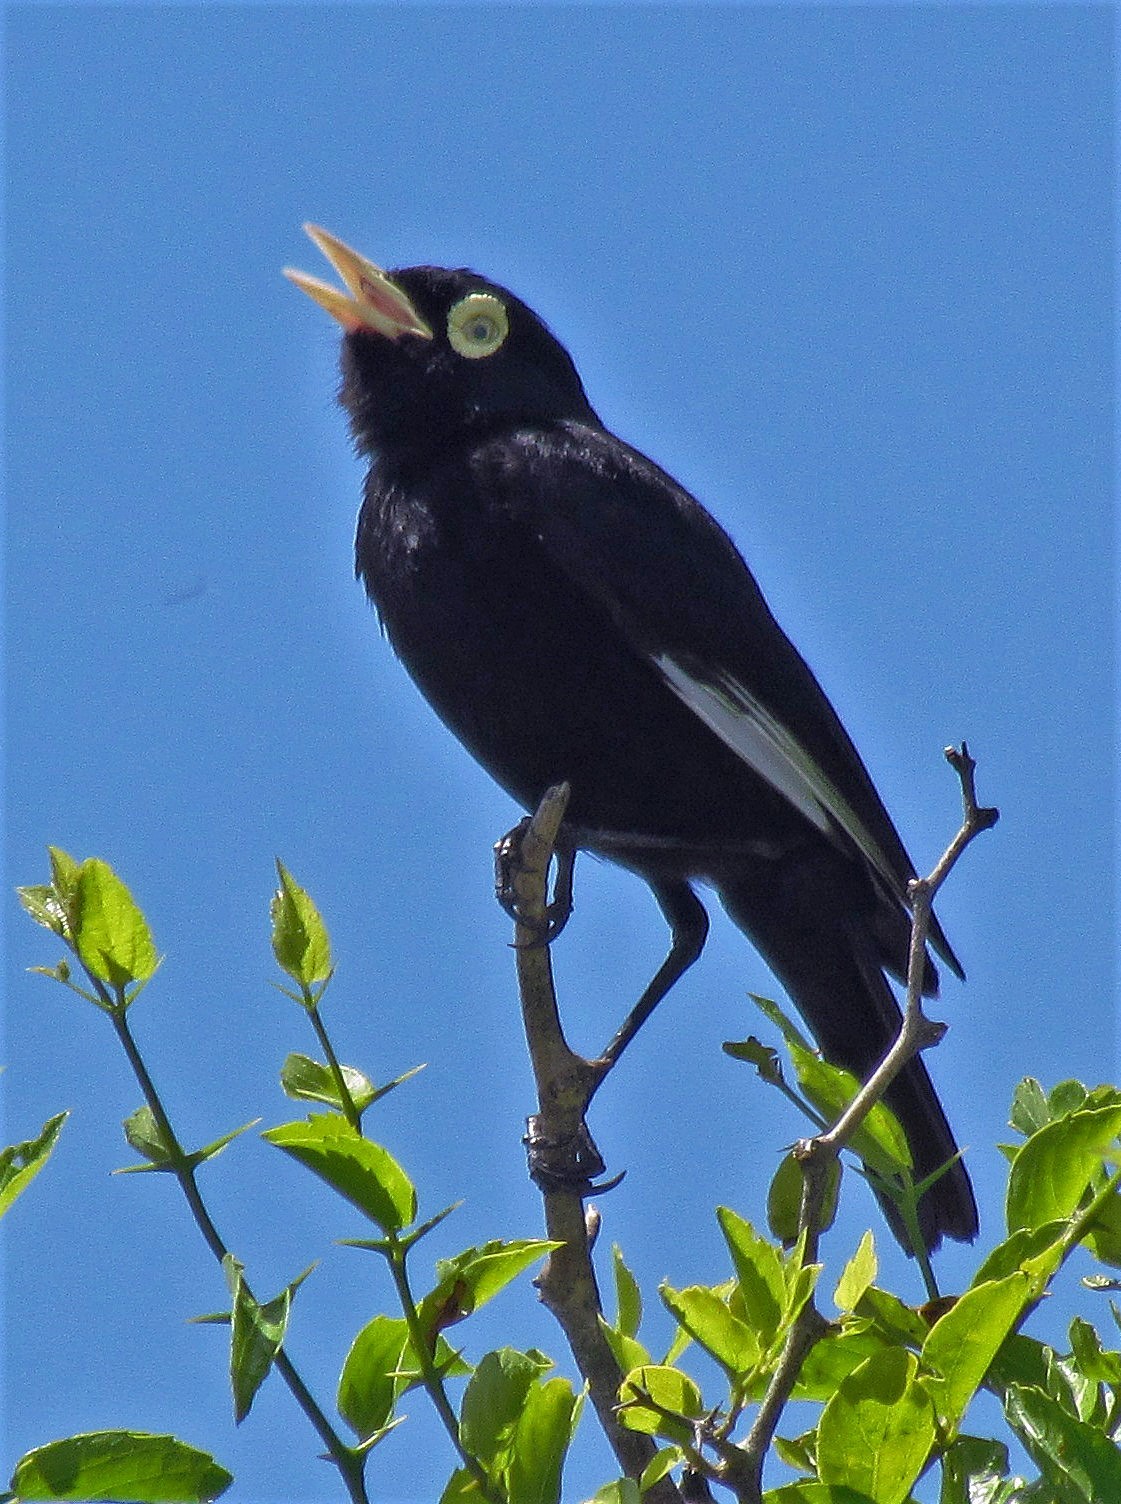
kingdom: Animalia
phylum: Chordata
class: Aves
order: Passeriformes
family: Tyrannidae
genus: Hymenops
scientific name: Hymenops perspicillatus
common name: Spectacled tyrant
